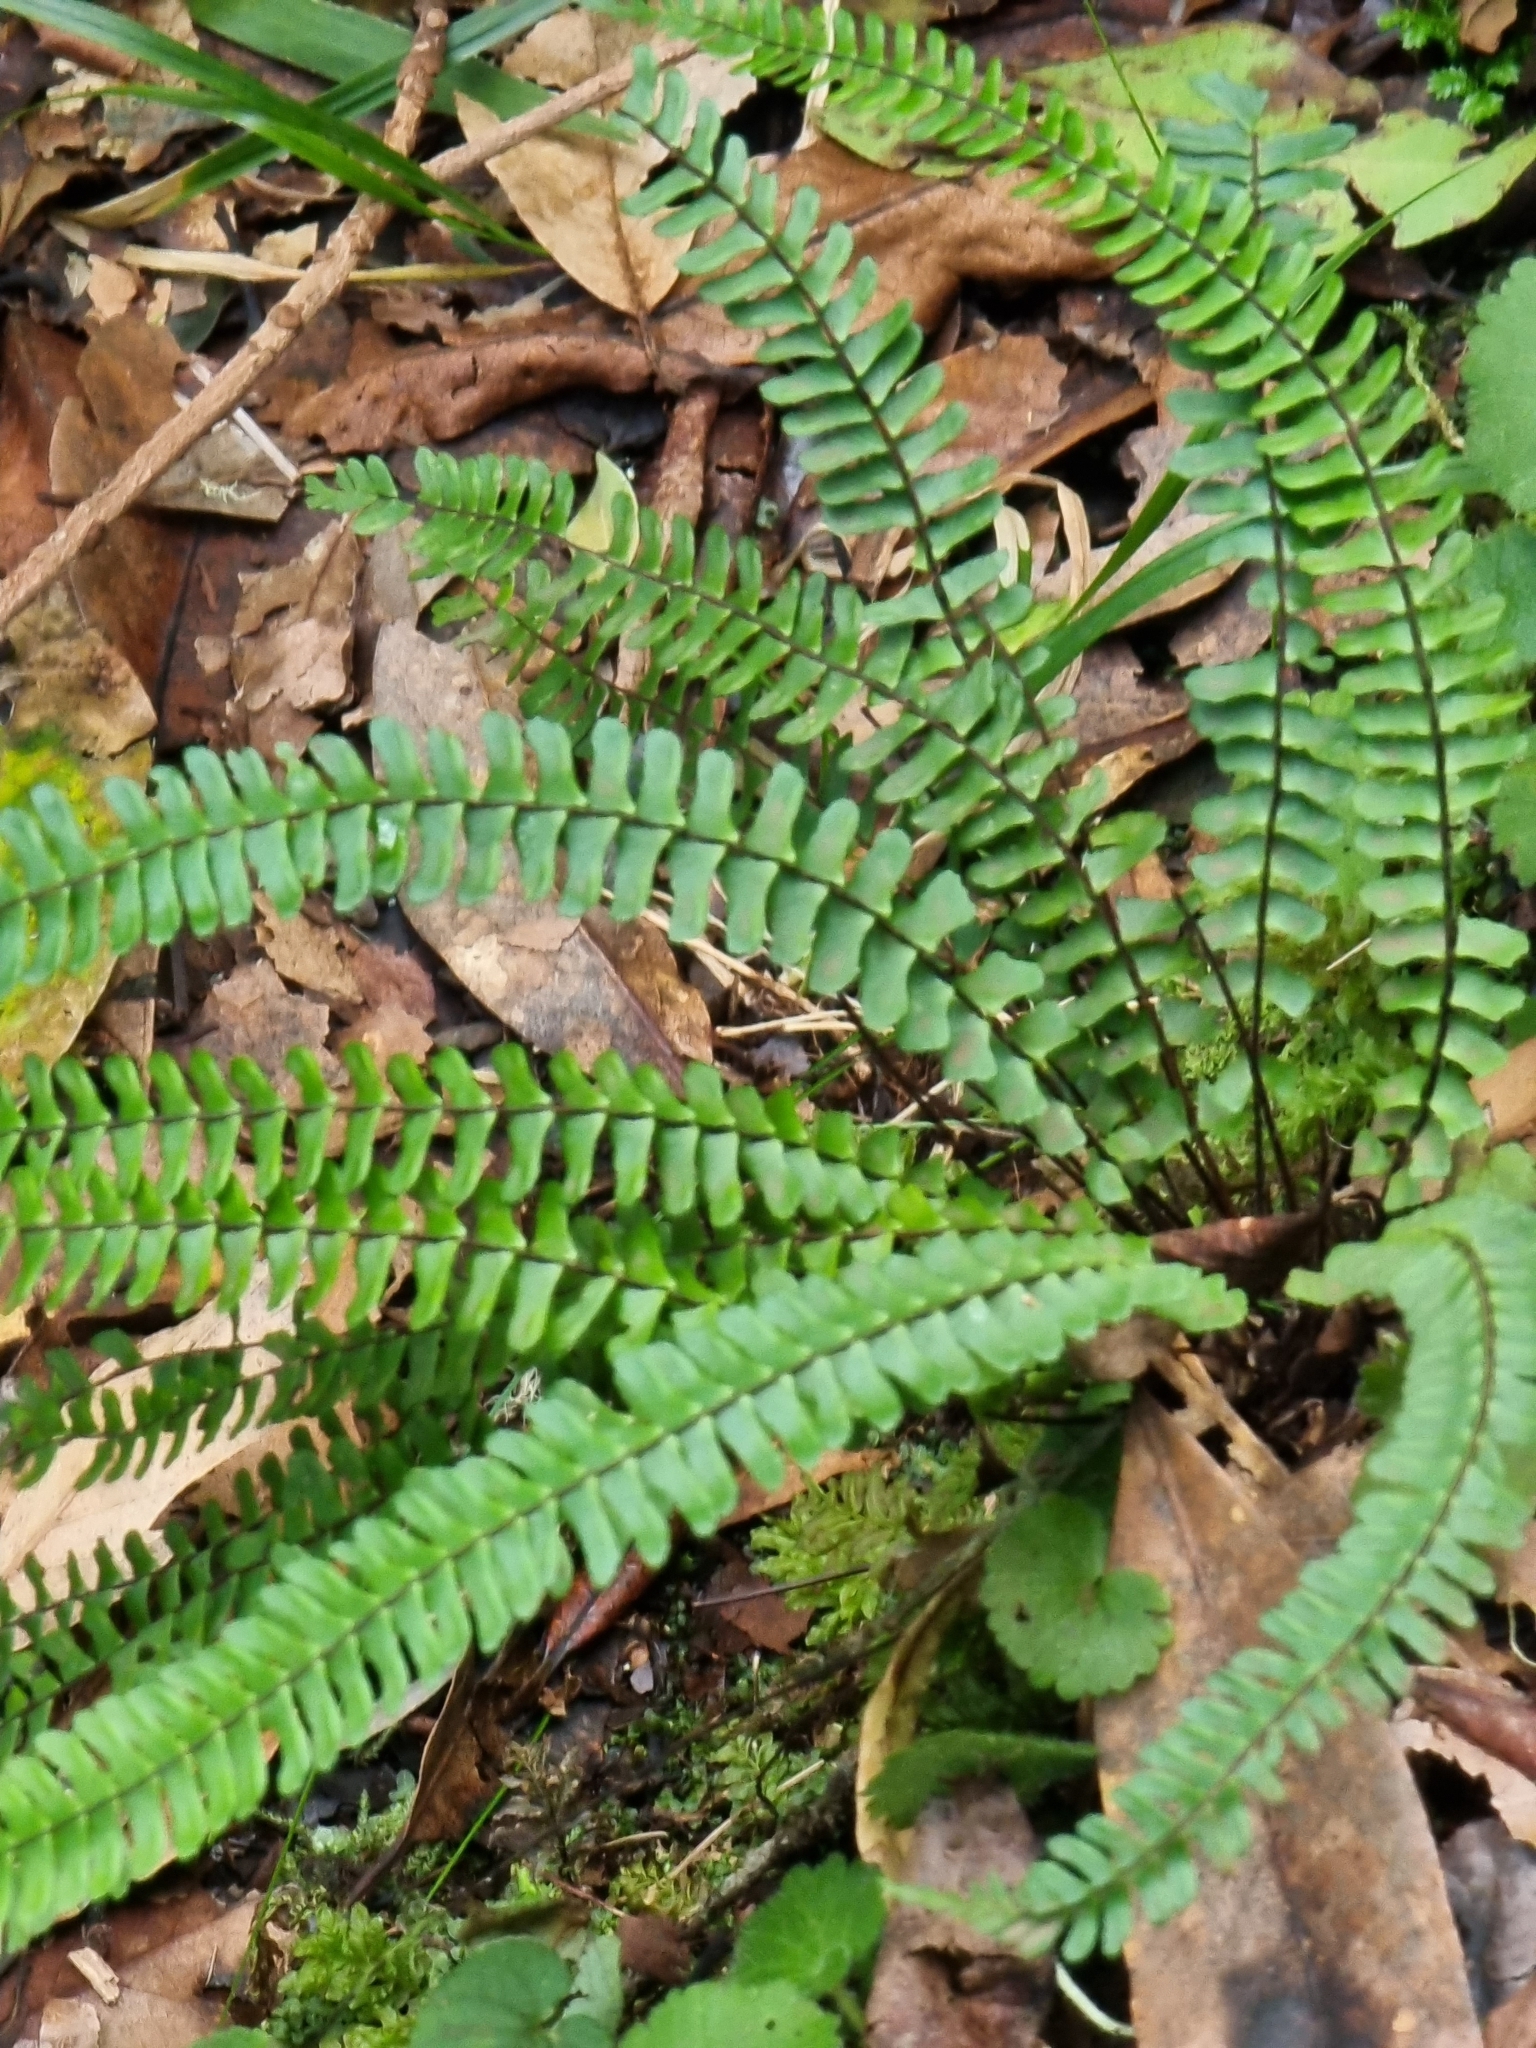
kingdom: Plantae
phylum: Tracheophyta
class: Polypodiopsida
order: Polypodiales
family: Aspleniaceae
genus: Asplenium
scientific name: Asplenium monanthes
